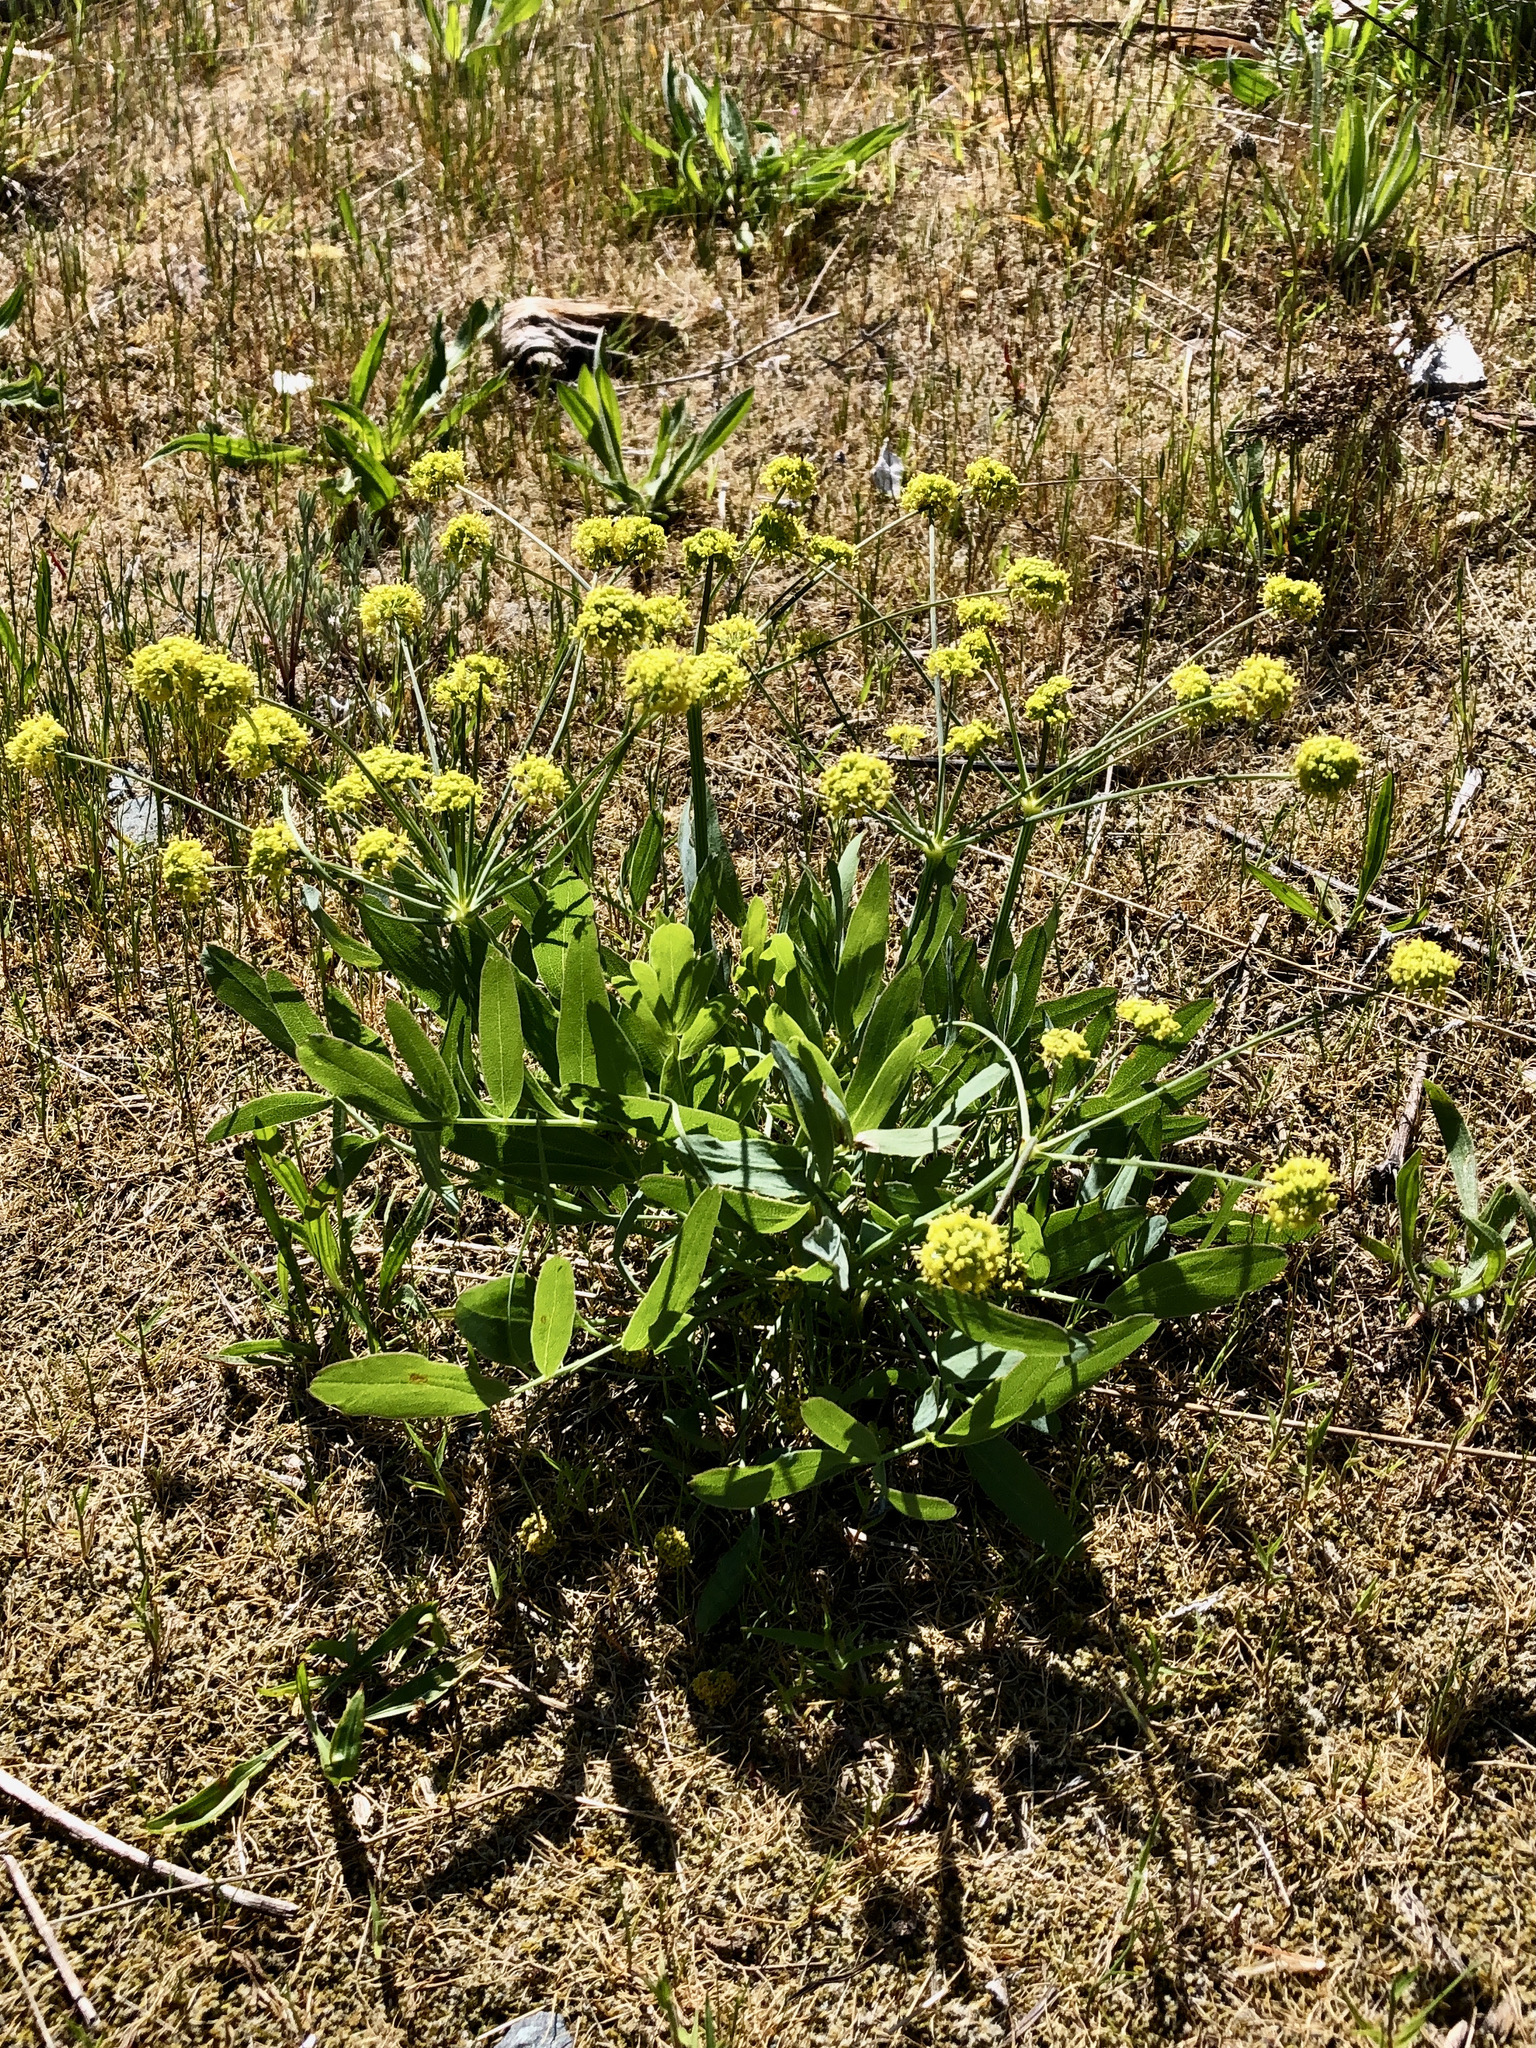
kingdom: Plantae
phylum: Tracheophyta
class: Magnoliopsida
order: Apiales
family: Apiaceae
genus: Lomatium
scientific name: Lomatium nudicaule
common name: Pestle lomatium
